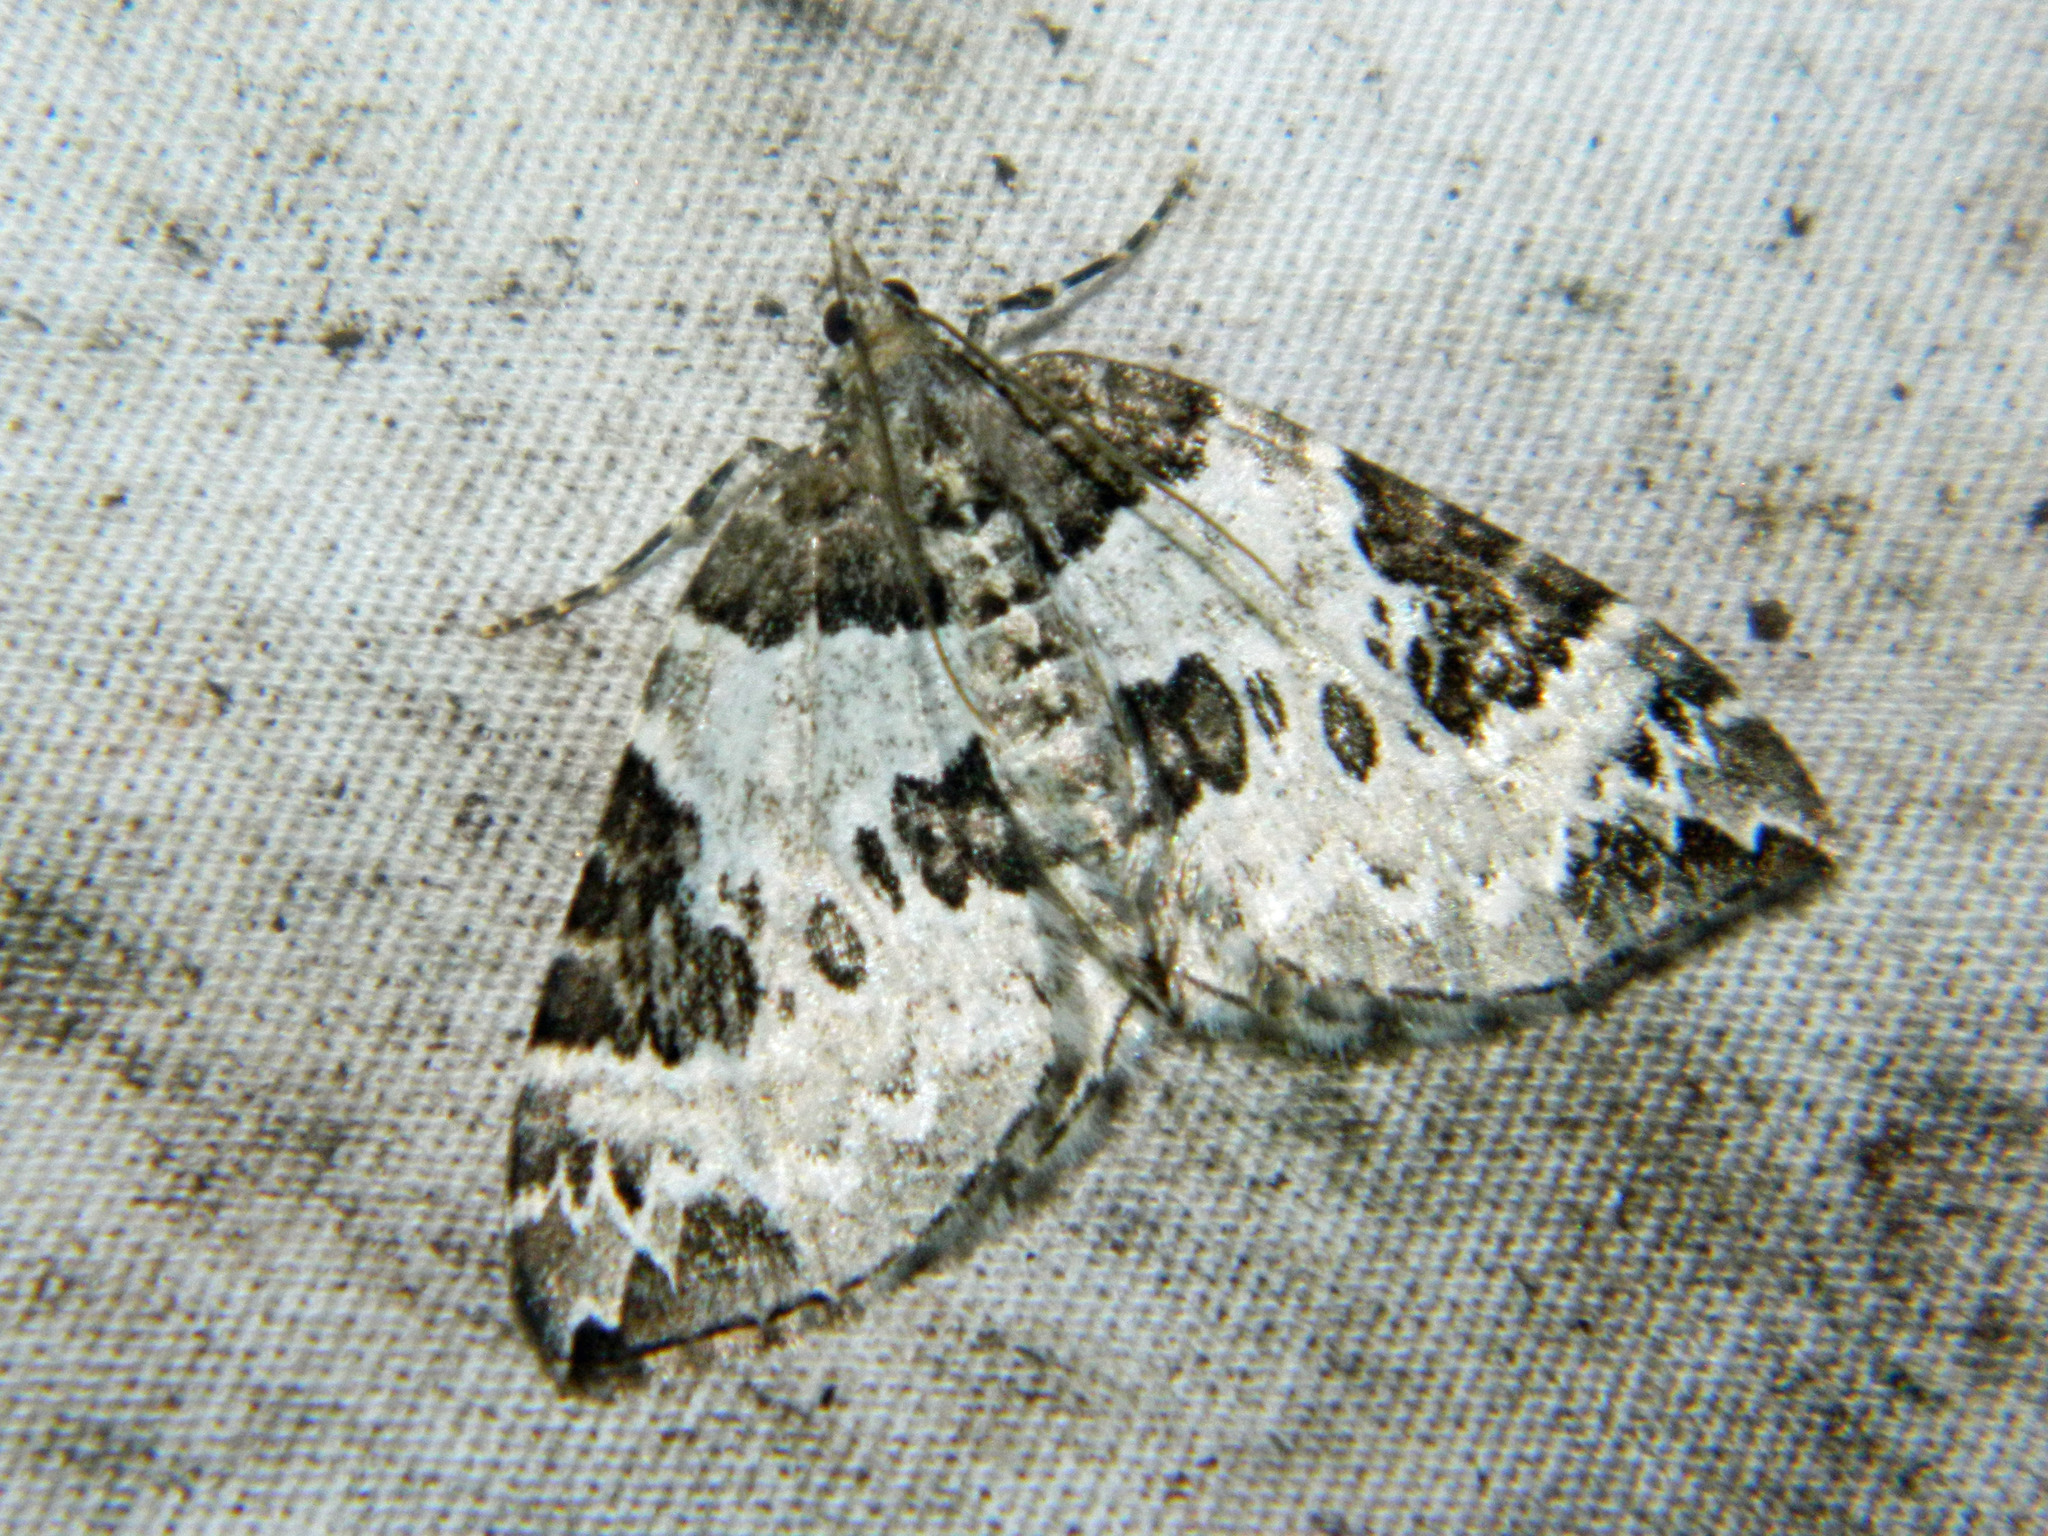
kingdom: Animalia
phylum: Arthropoda
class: Insecta
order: Lepidoptera
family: Geometridae
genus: Eulithis
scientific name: Eulithis explanata
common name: White eulithis
